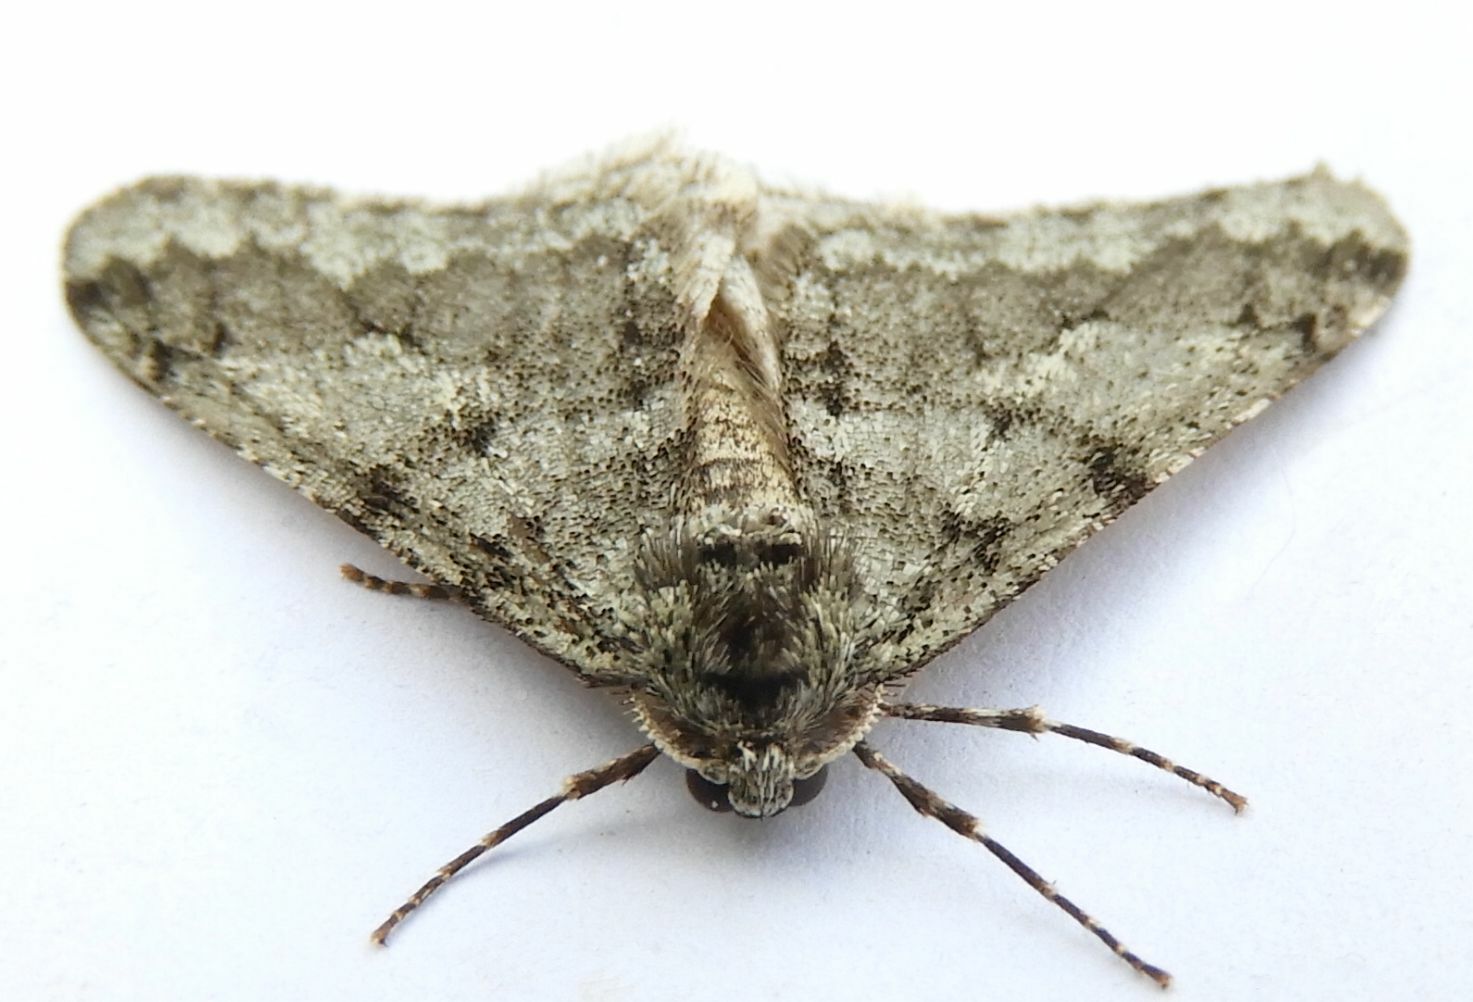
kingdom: Animalia
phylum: Arthropoda
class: Insecta
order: Lepidoptera
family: Geometridae
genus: Phigalia
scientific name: Phigalia strigataria
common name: Small phigalia
